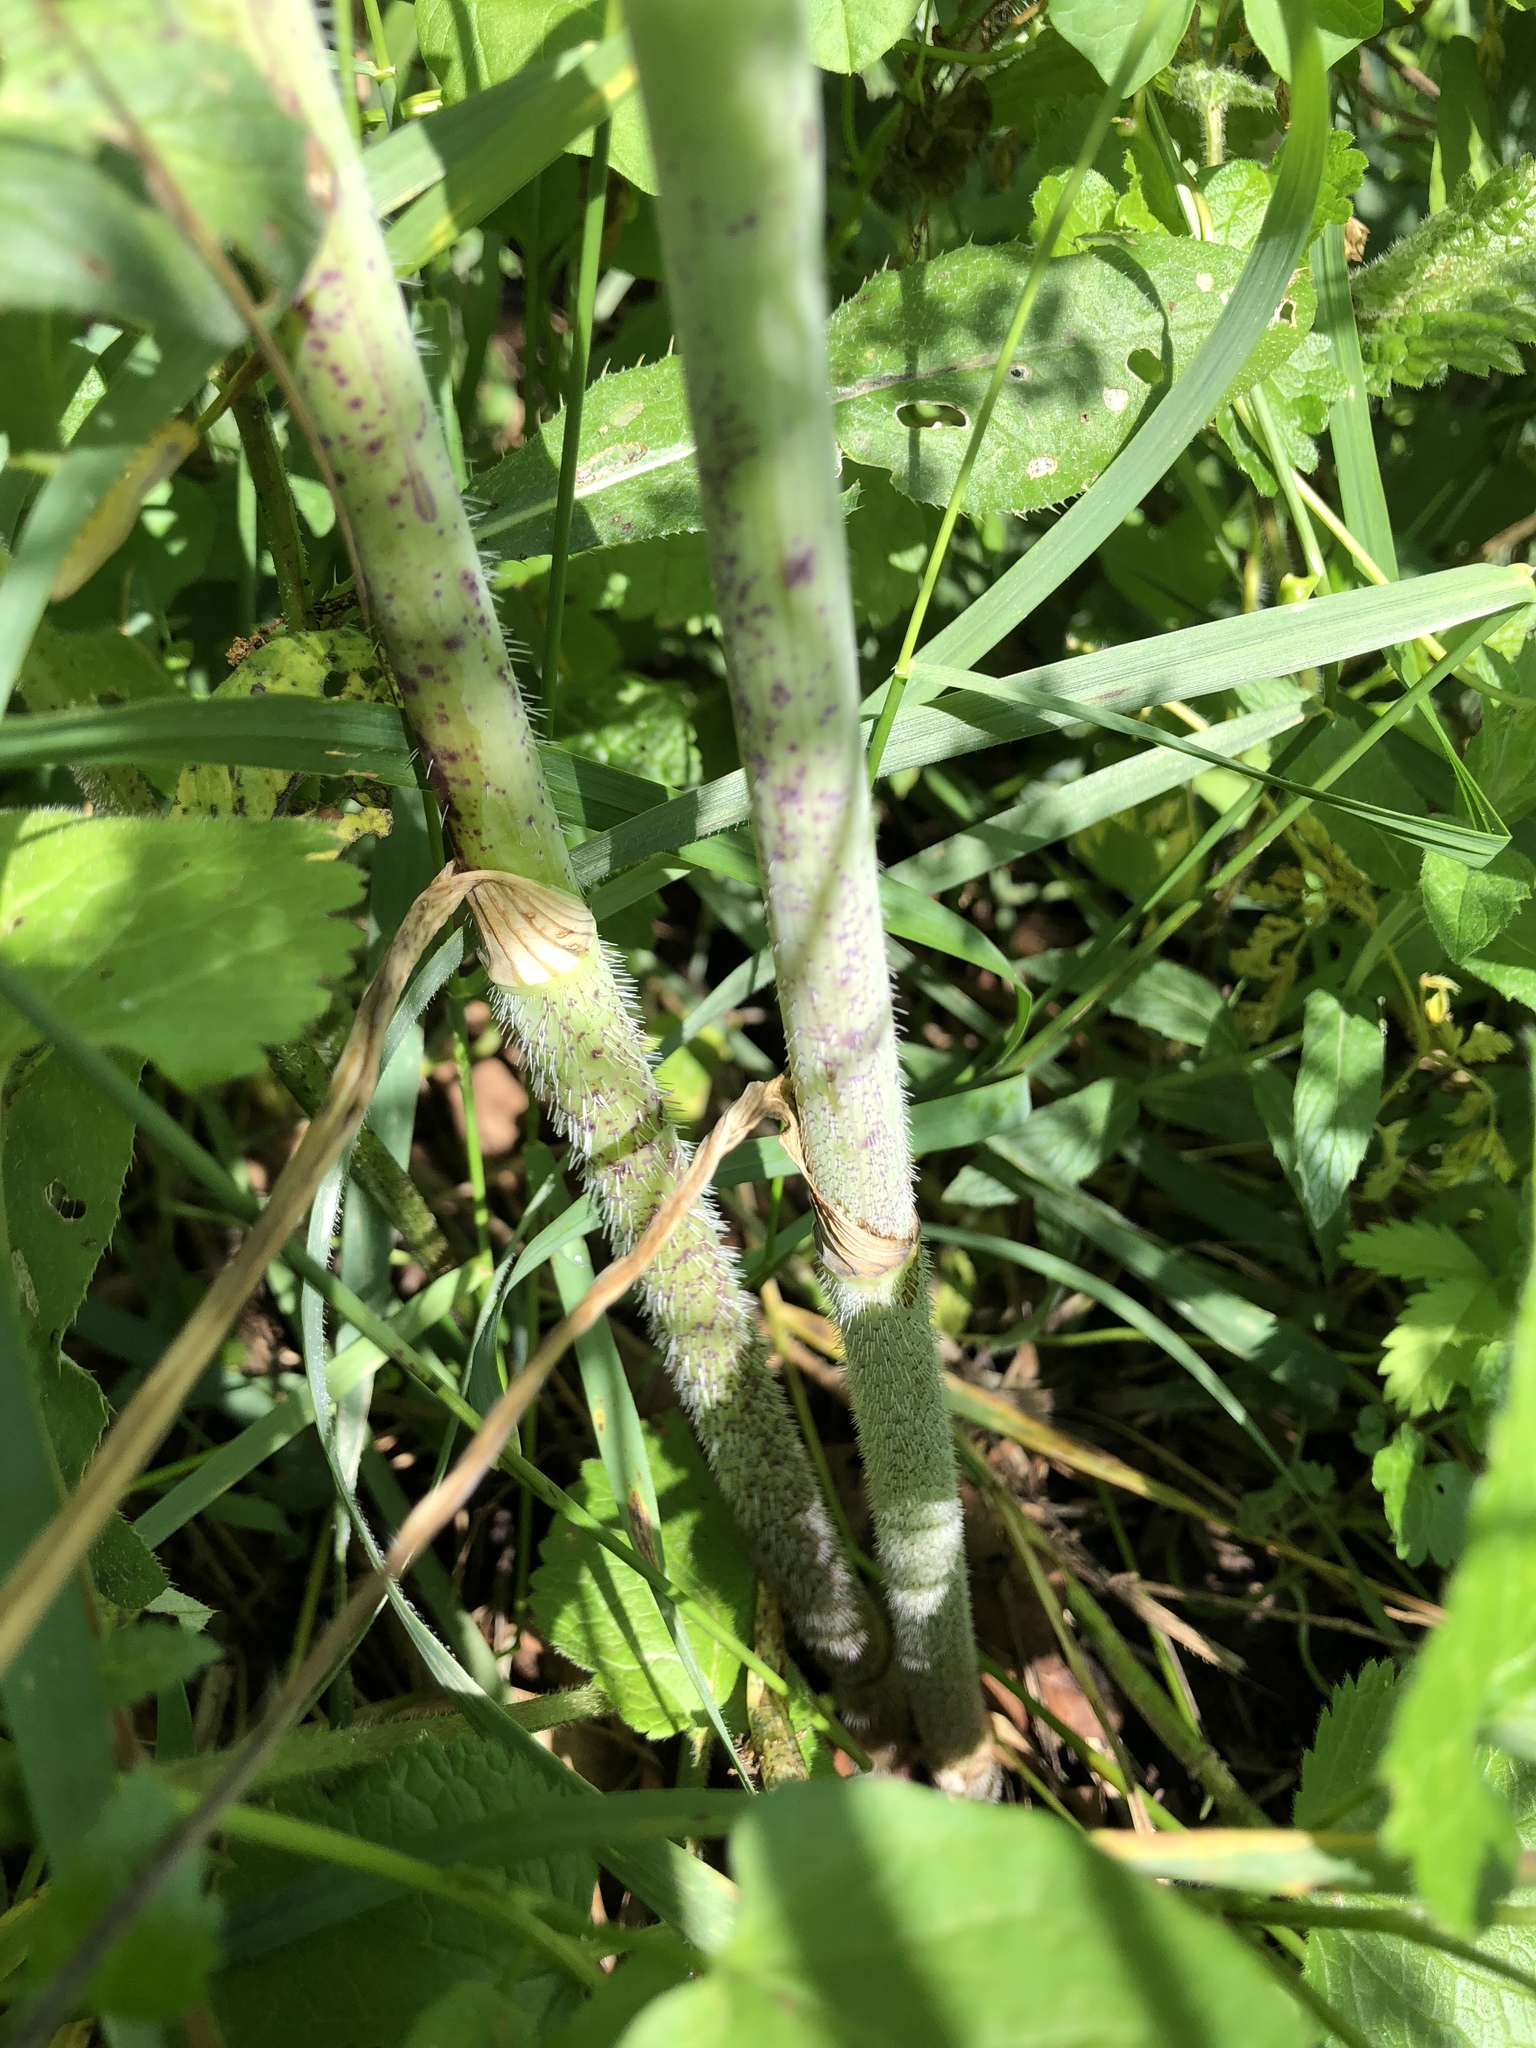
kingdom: Plantae
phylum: Tracheophyta
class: Magnoliopsida
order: Apiales
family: Apiaceae
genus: Conium
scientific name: Conium maculatum
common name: Hemlock
